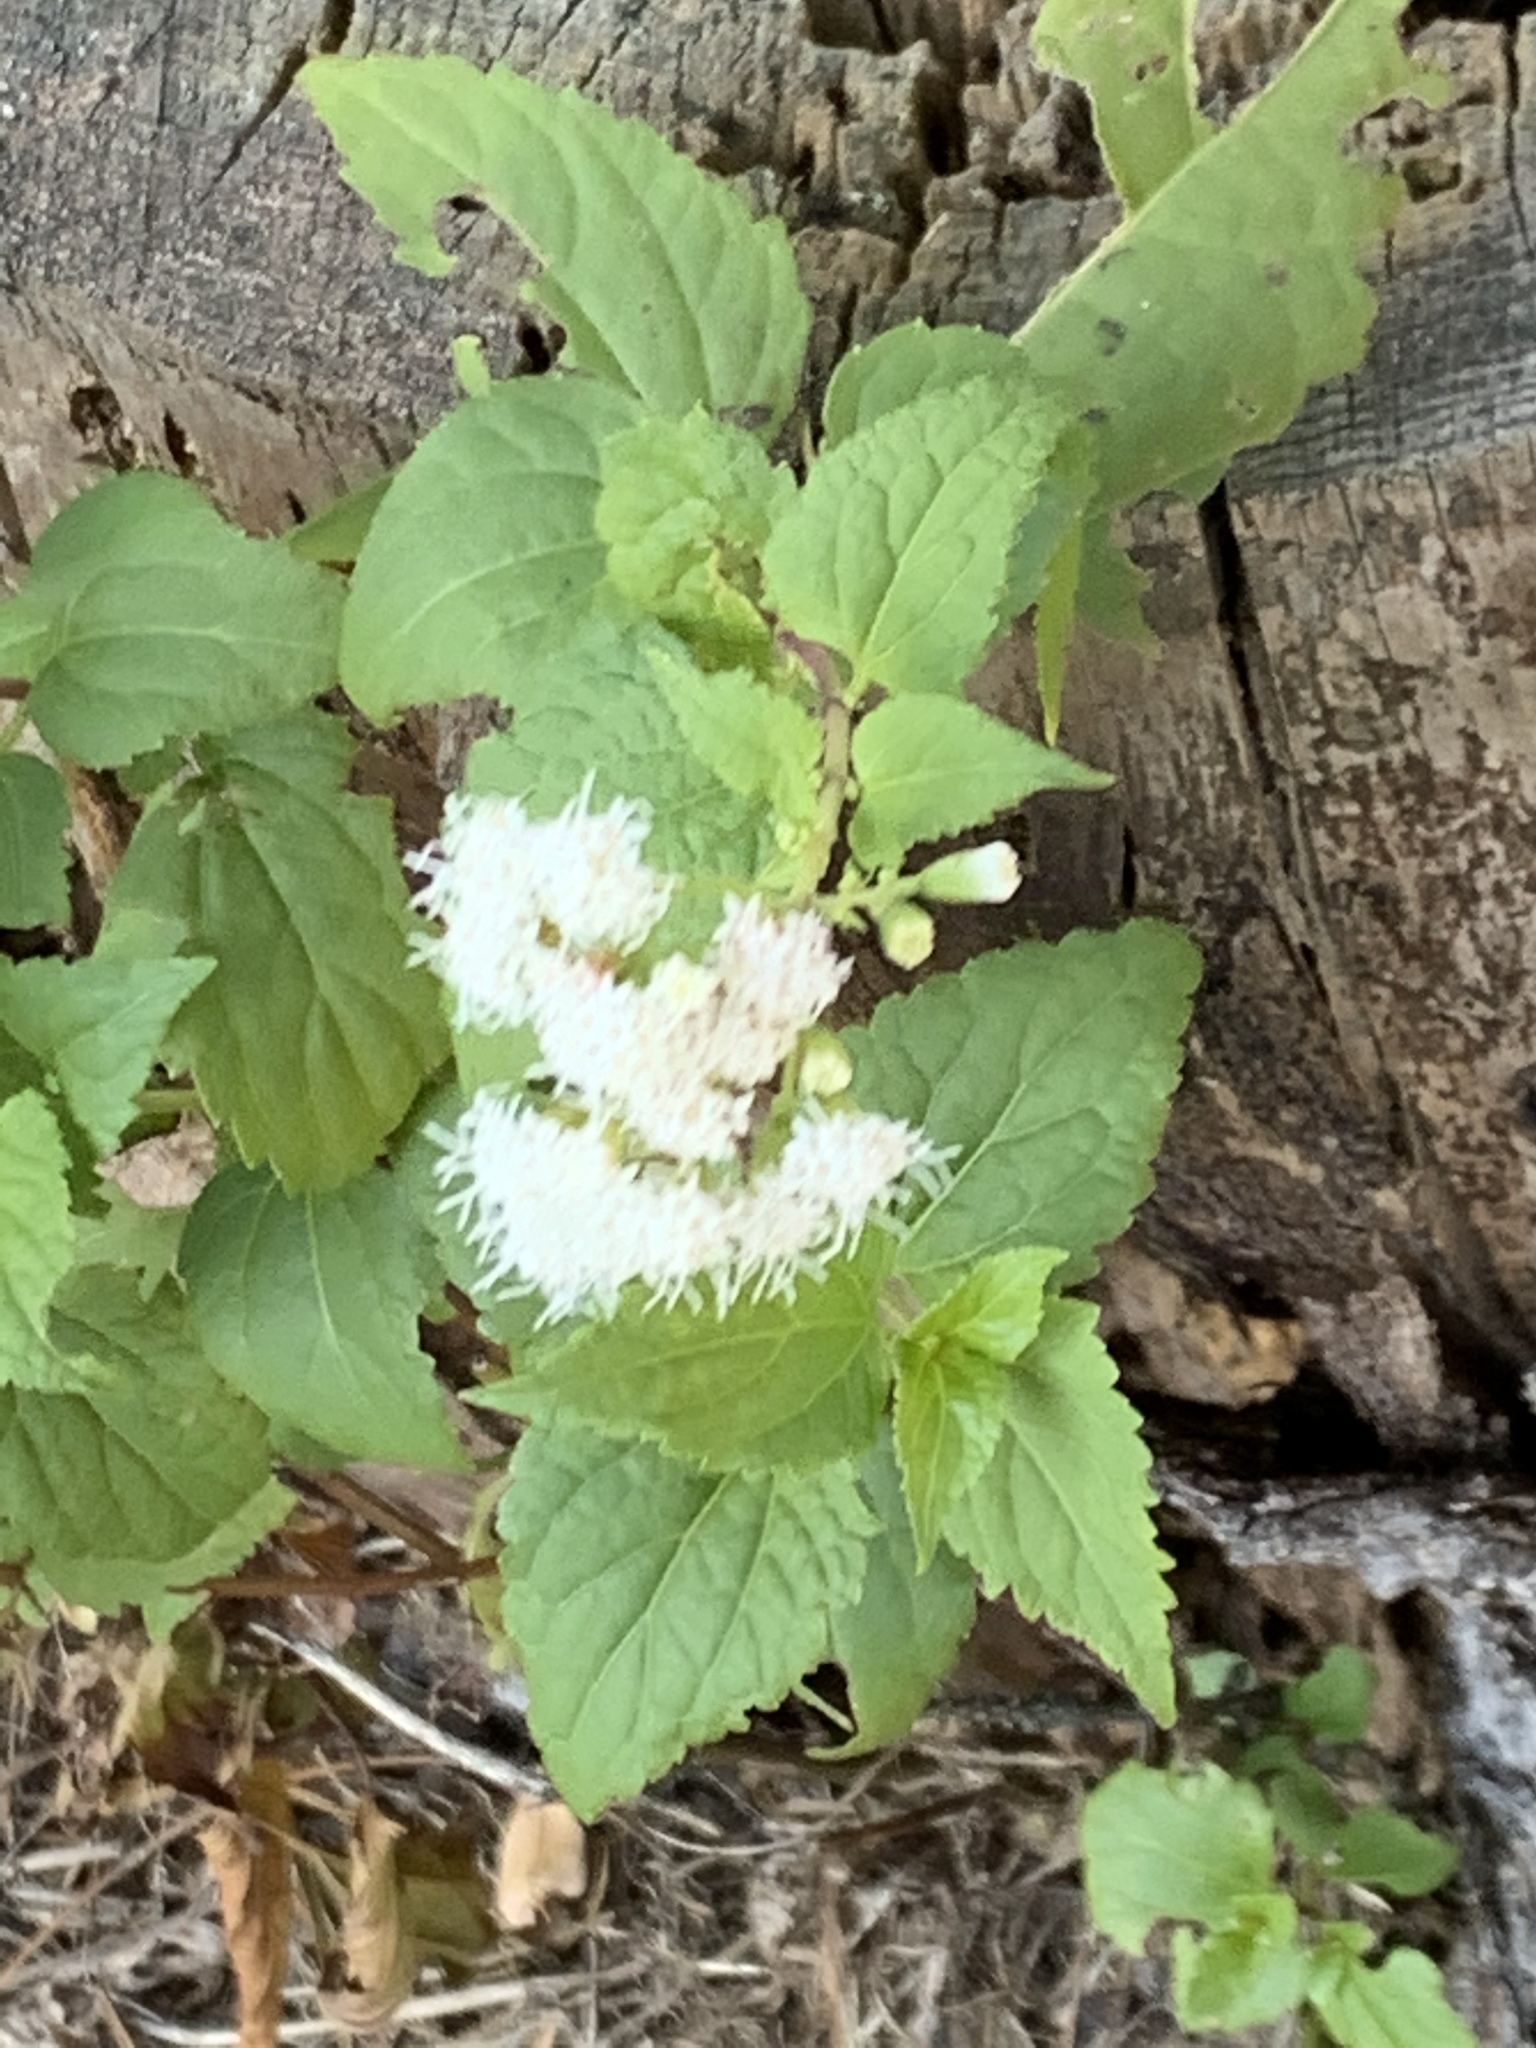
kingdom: Plantae
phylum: Tracheophyta
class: Magnoliopsida
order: Asterales
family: Asteraceae
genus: Ageratina
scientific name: Ageratina altissima
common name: White snakeroot
